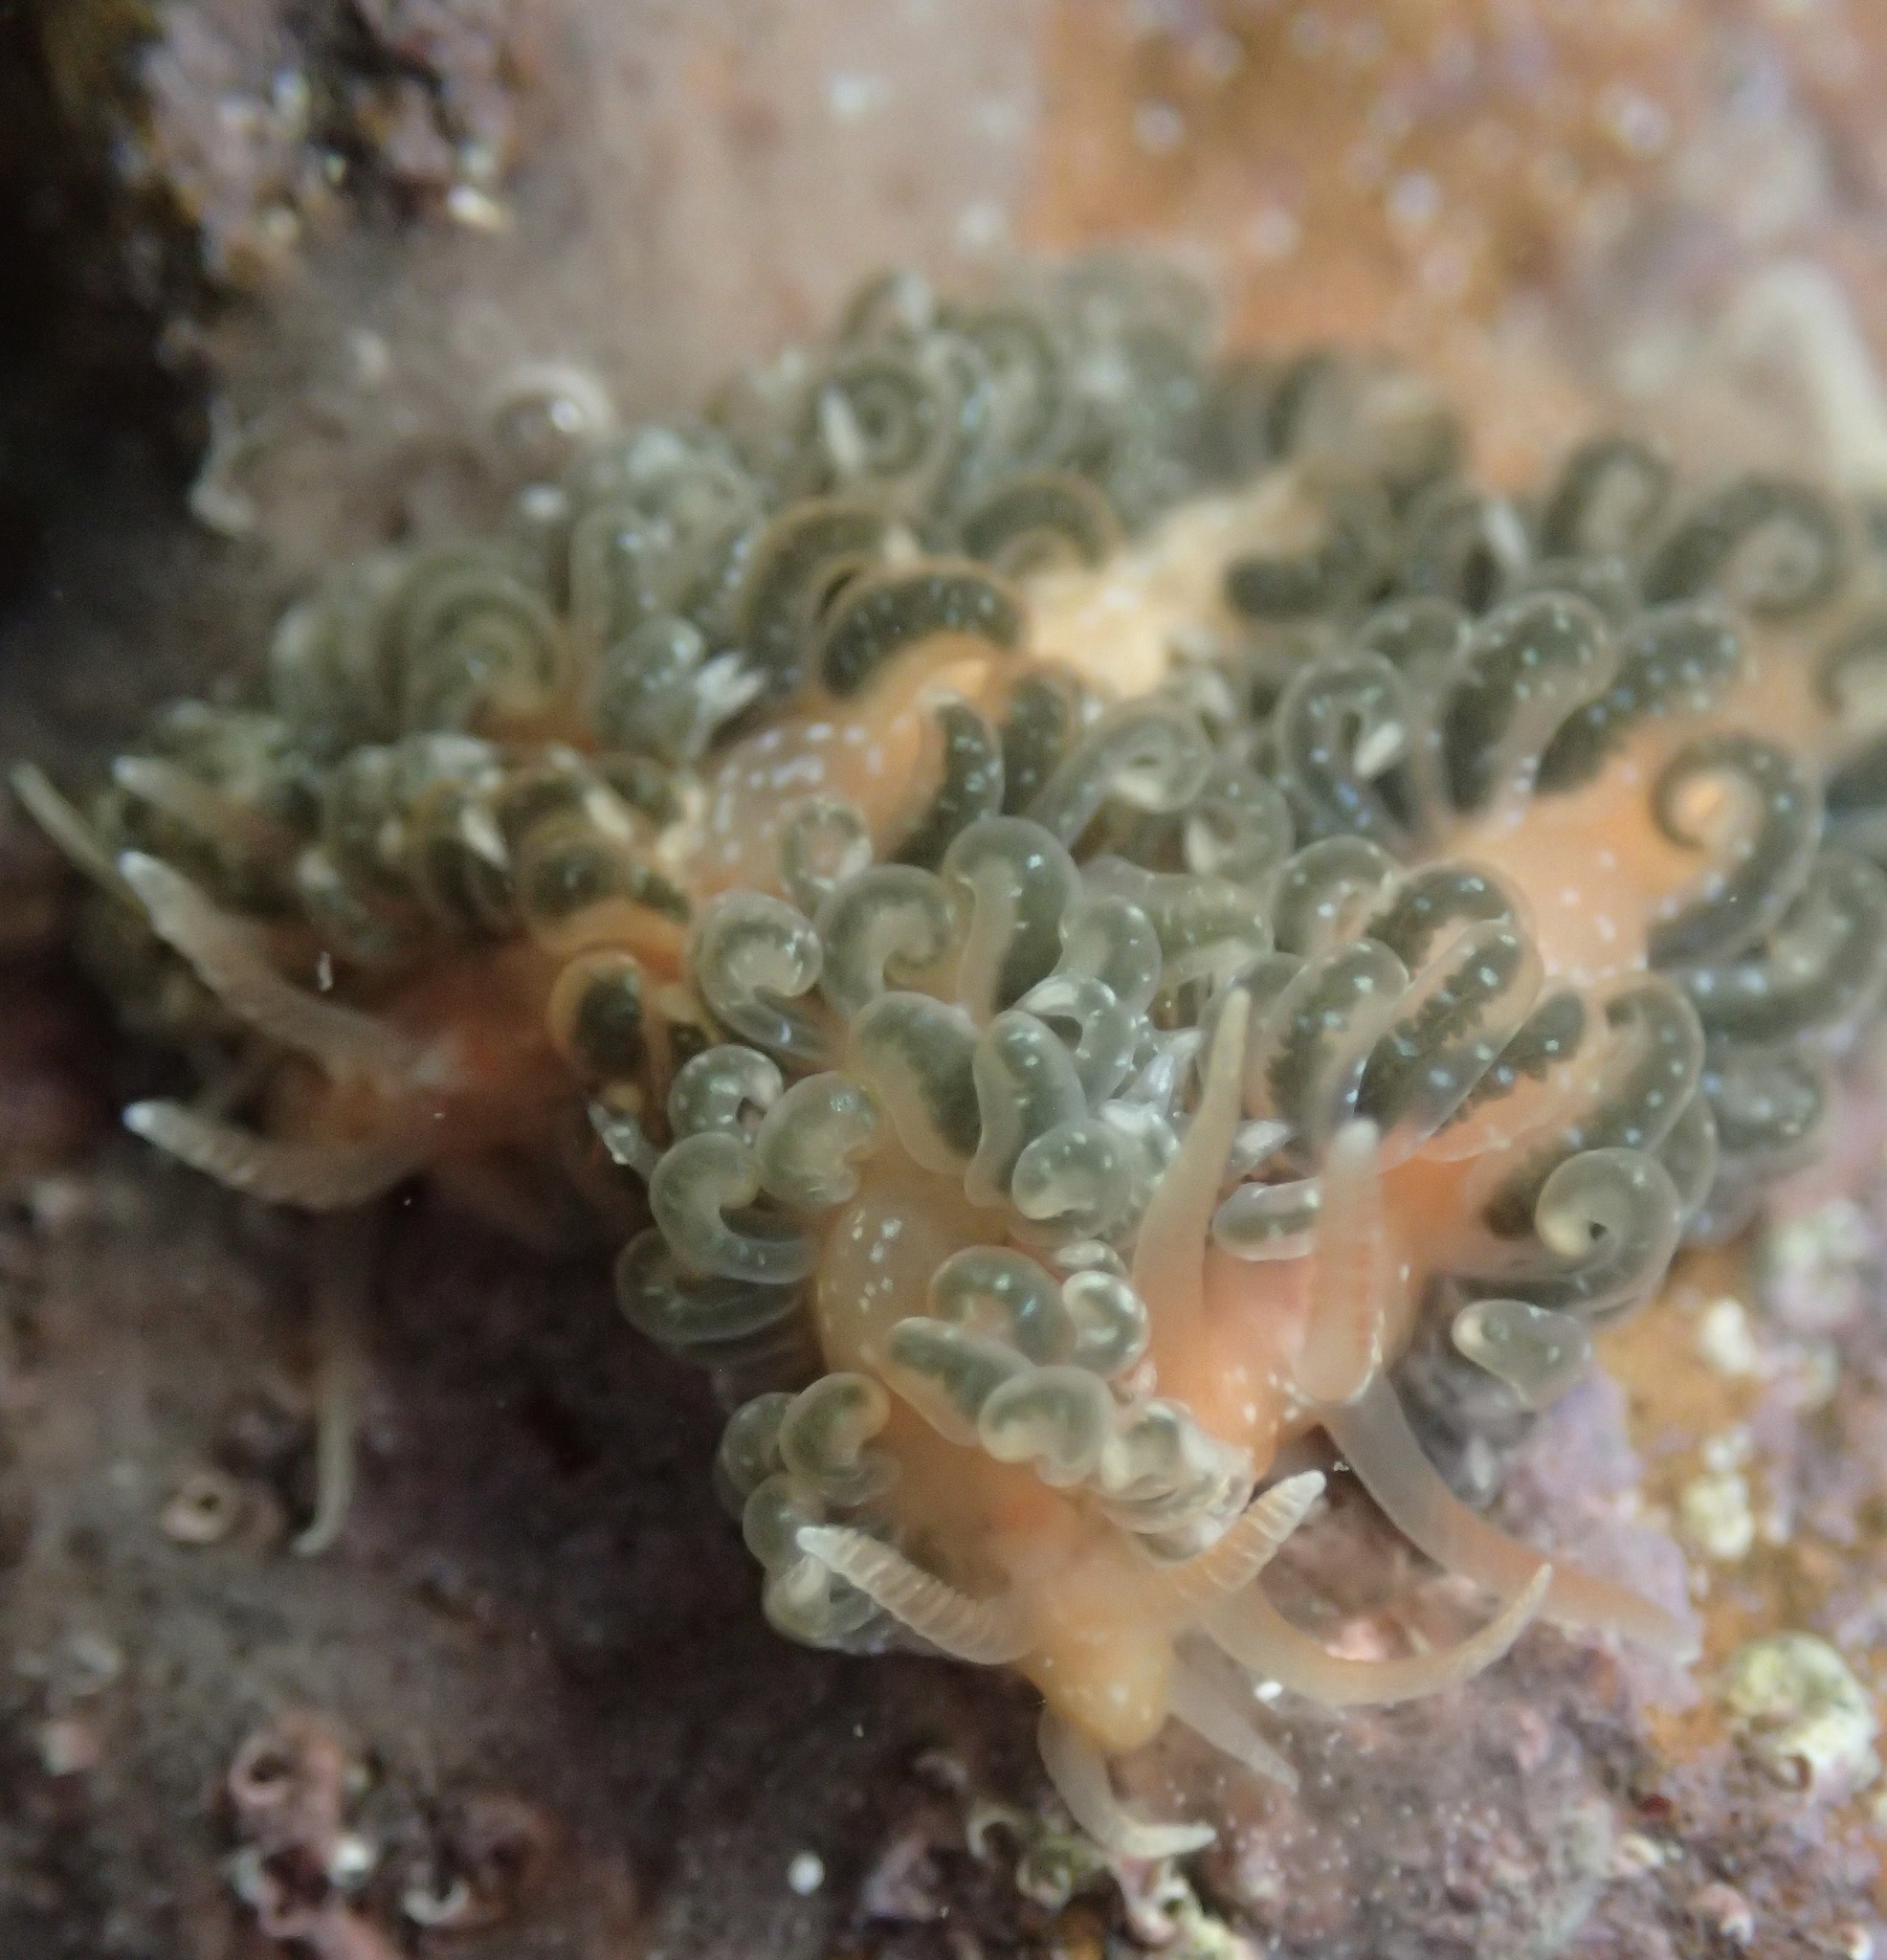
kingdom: Animalia
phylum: Mollusca
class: Gastropoda
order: Nudibranchia
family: Aeolidiidae
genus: Spurilla
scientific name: Spurilla braziliana
